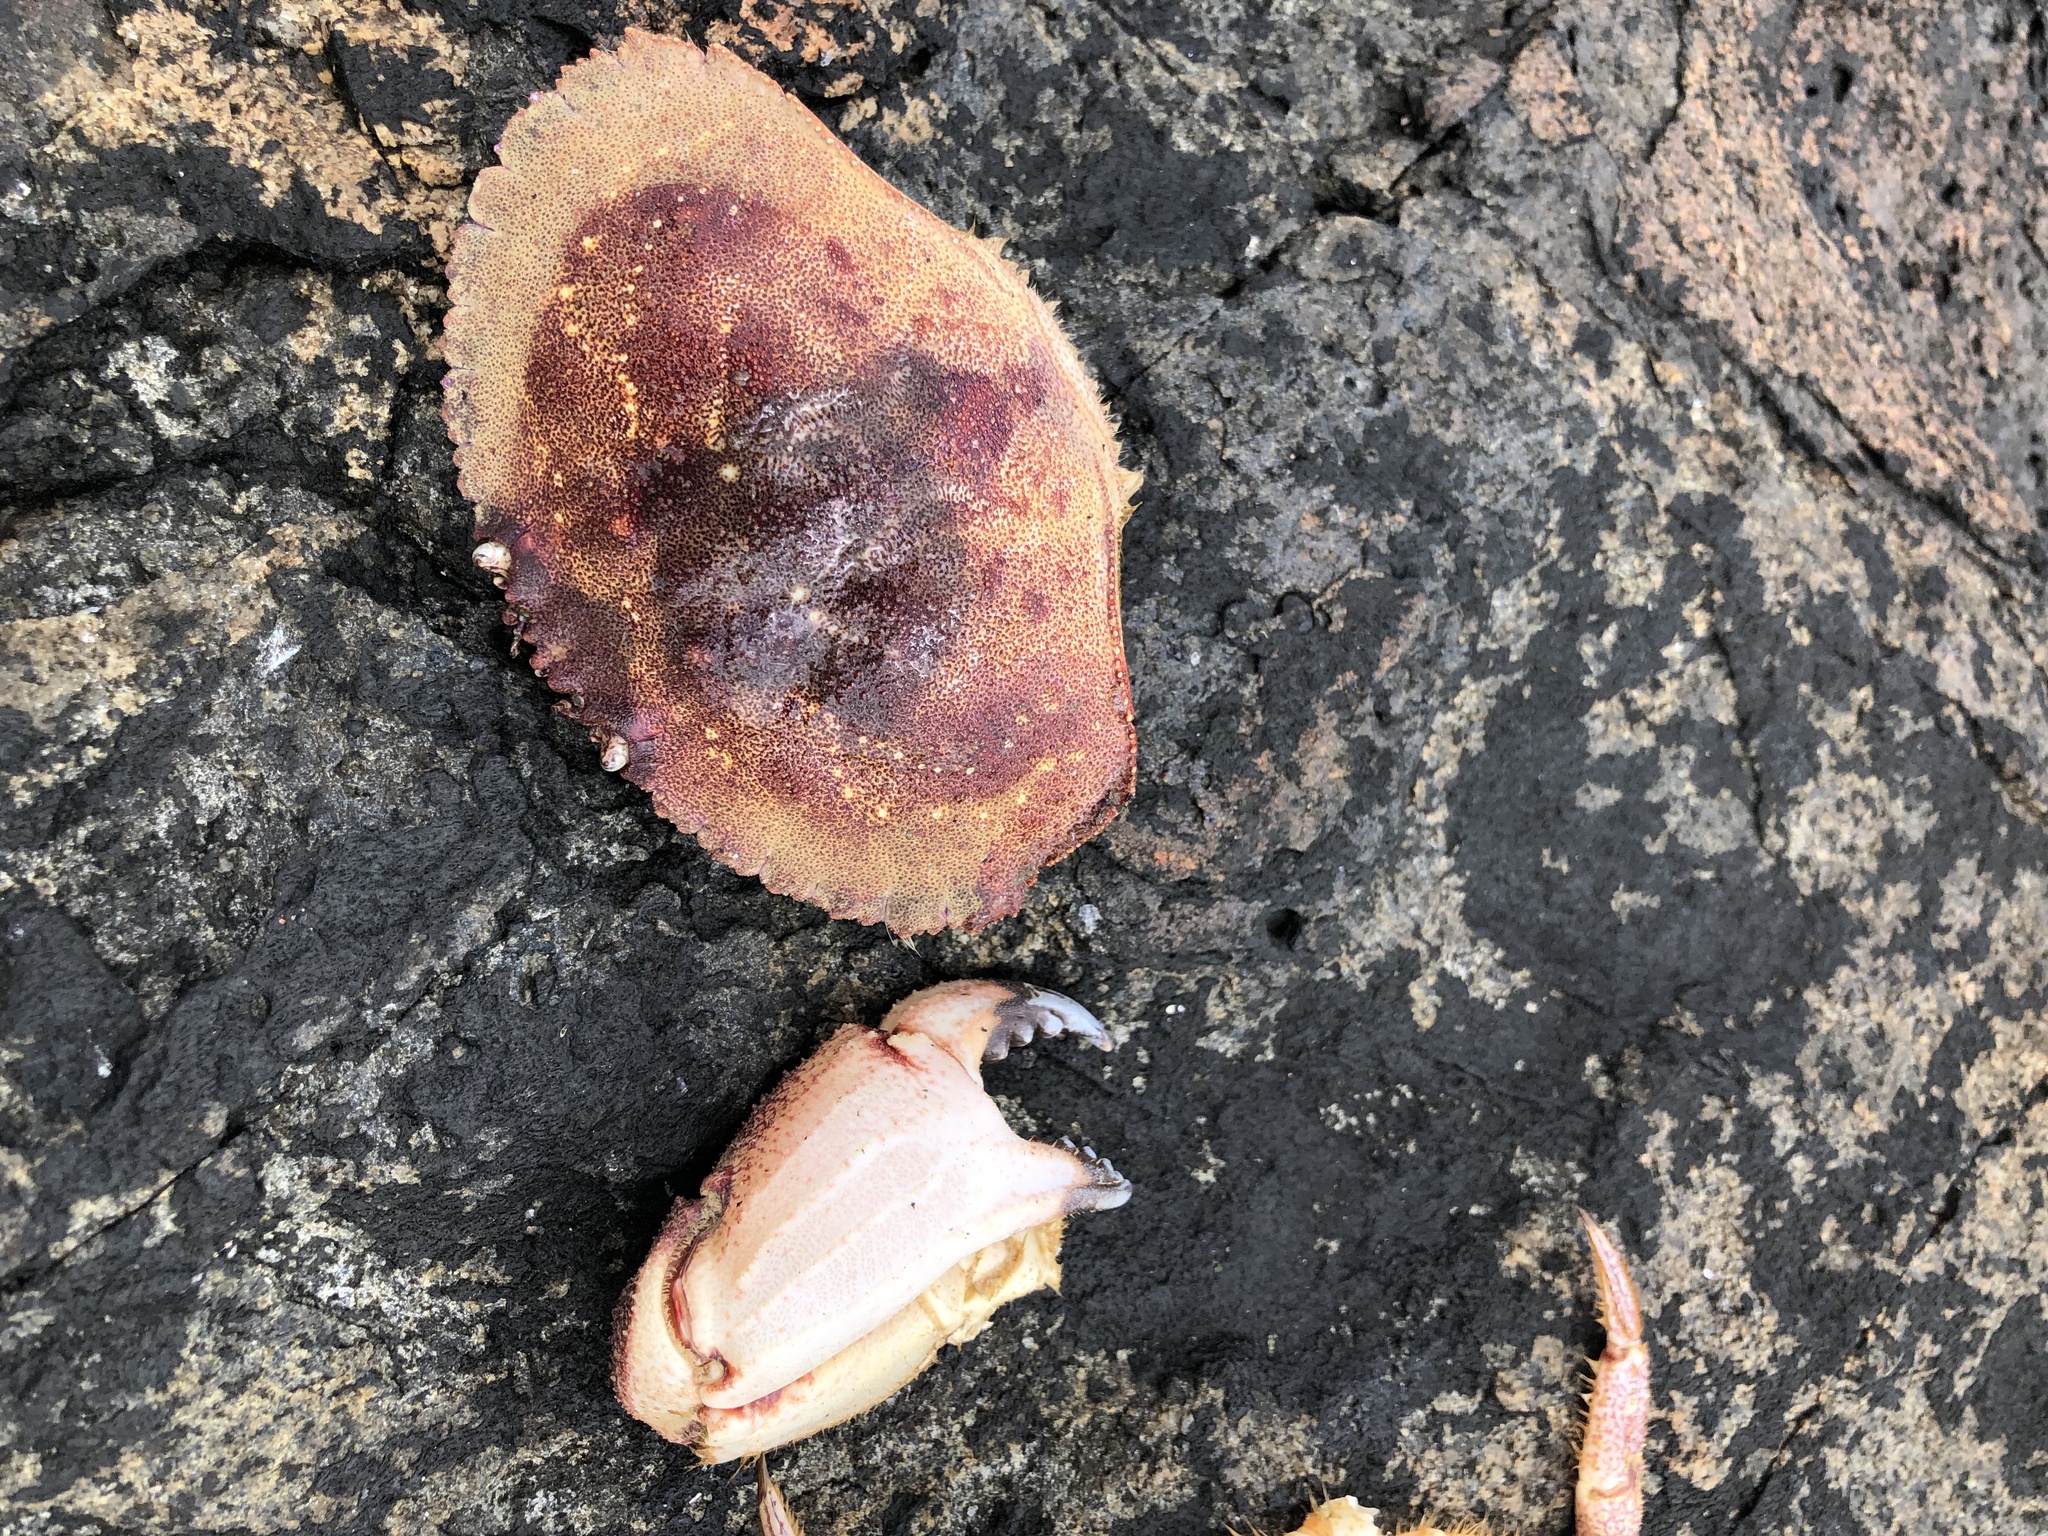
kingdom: Animalia
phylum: Arthropoda
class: Malacostraca
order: Decapoda
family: Cancridae
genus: Cancer
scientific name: Cancer borealis
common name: Jonah crab
